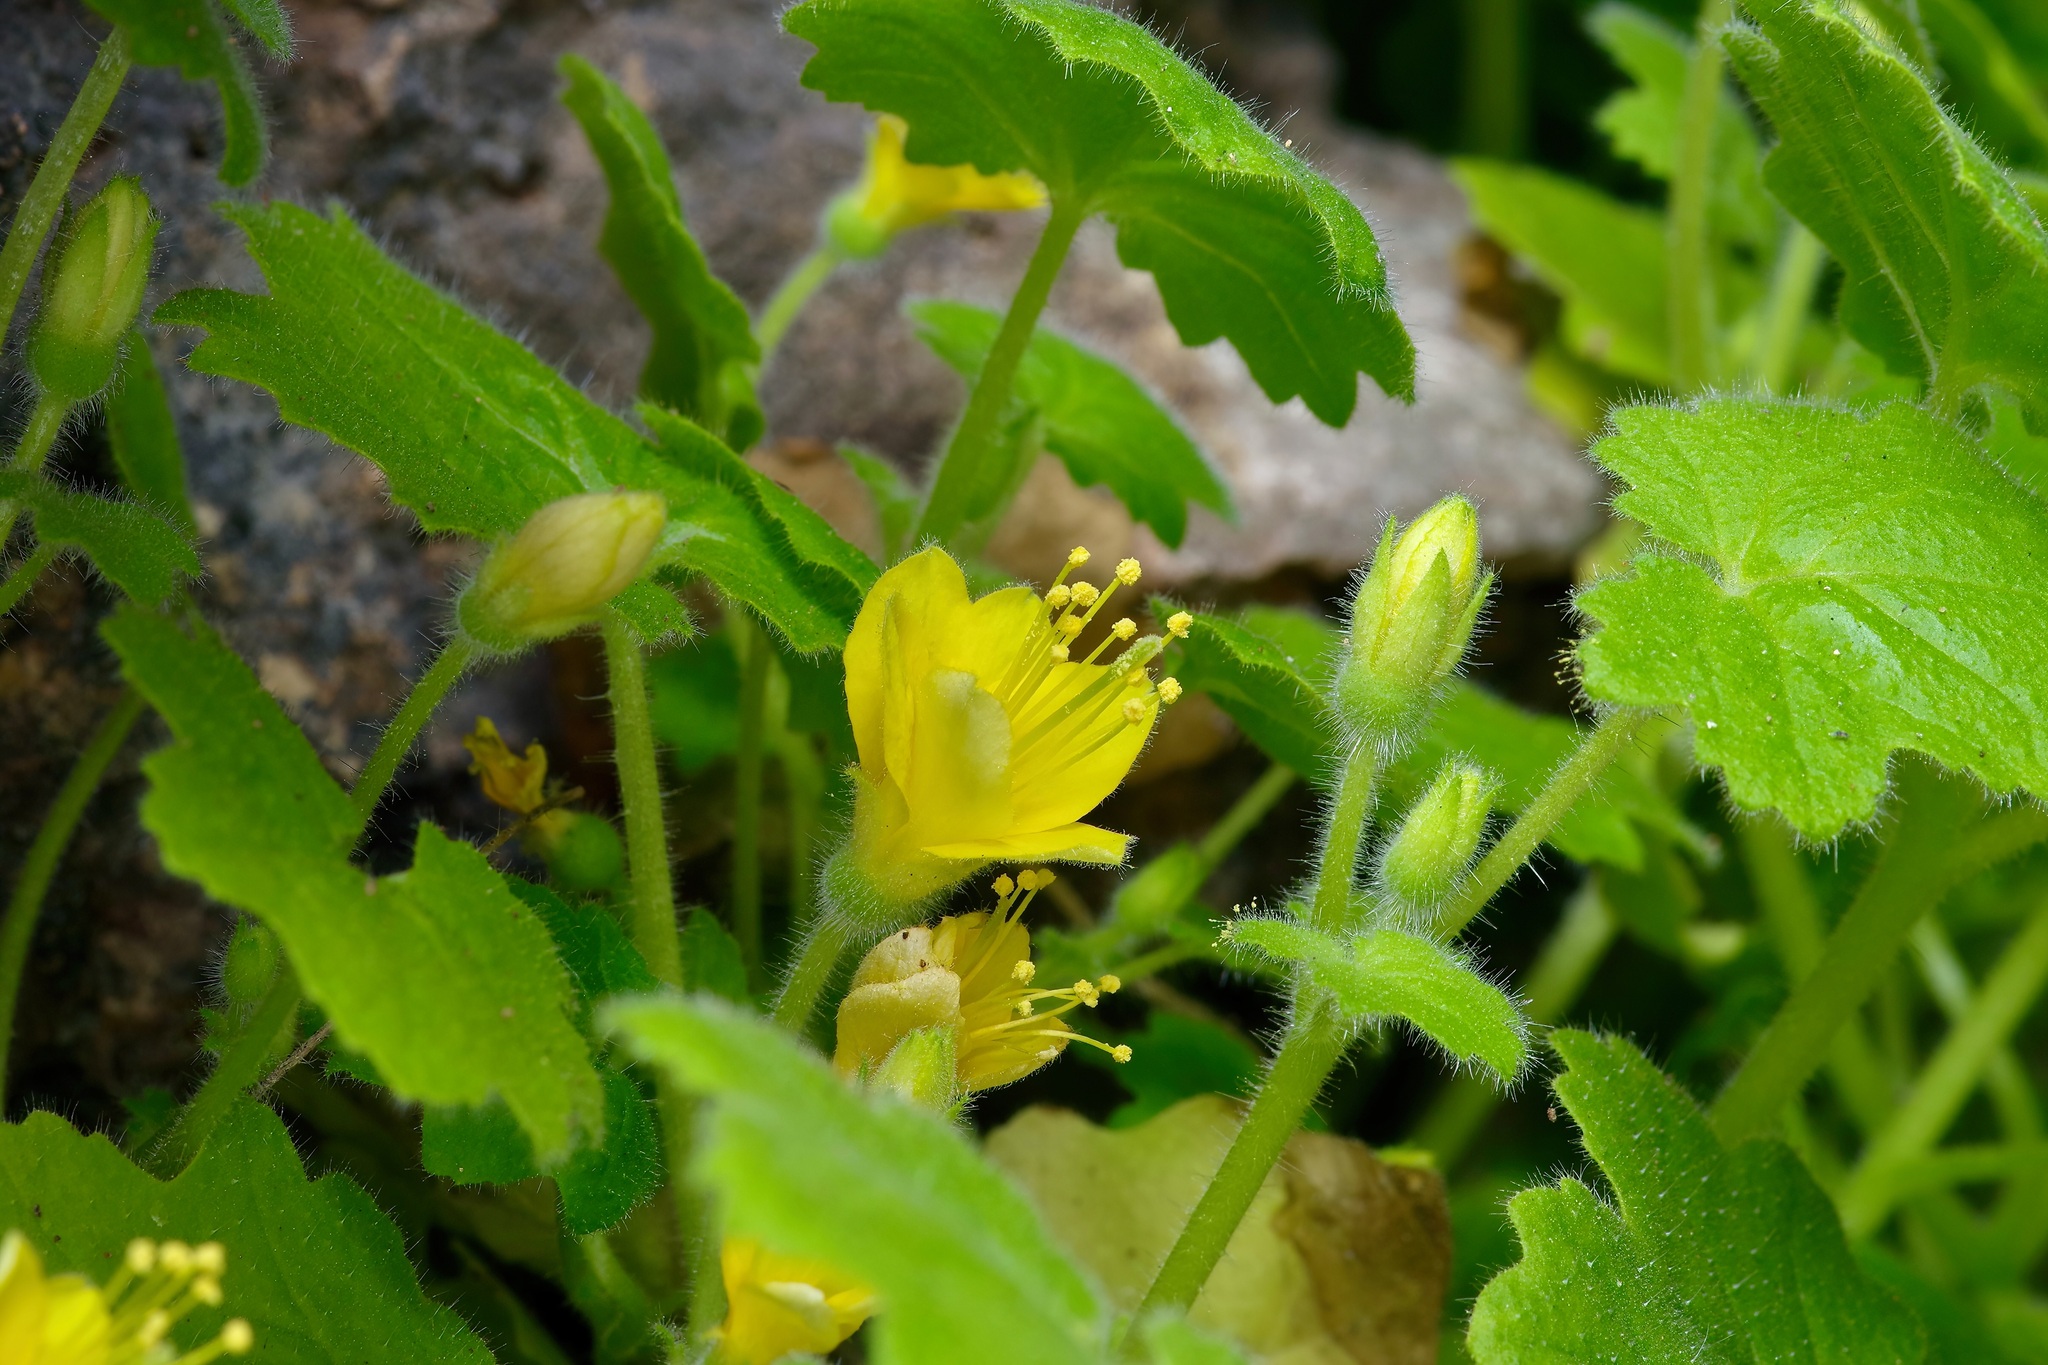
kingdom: Plantae
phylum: Tracheophyta
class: Magnoliopsida
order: Cornales
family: Loasaceae
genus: Eucnide
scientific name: Eucnide bartonioides
